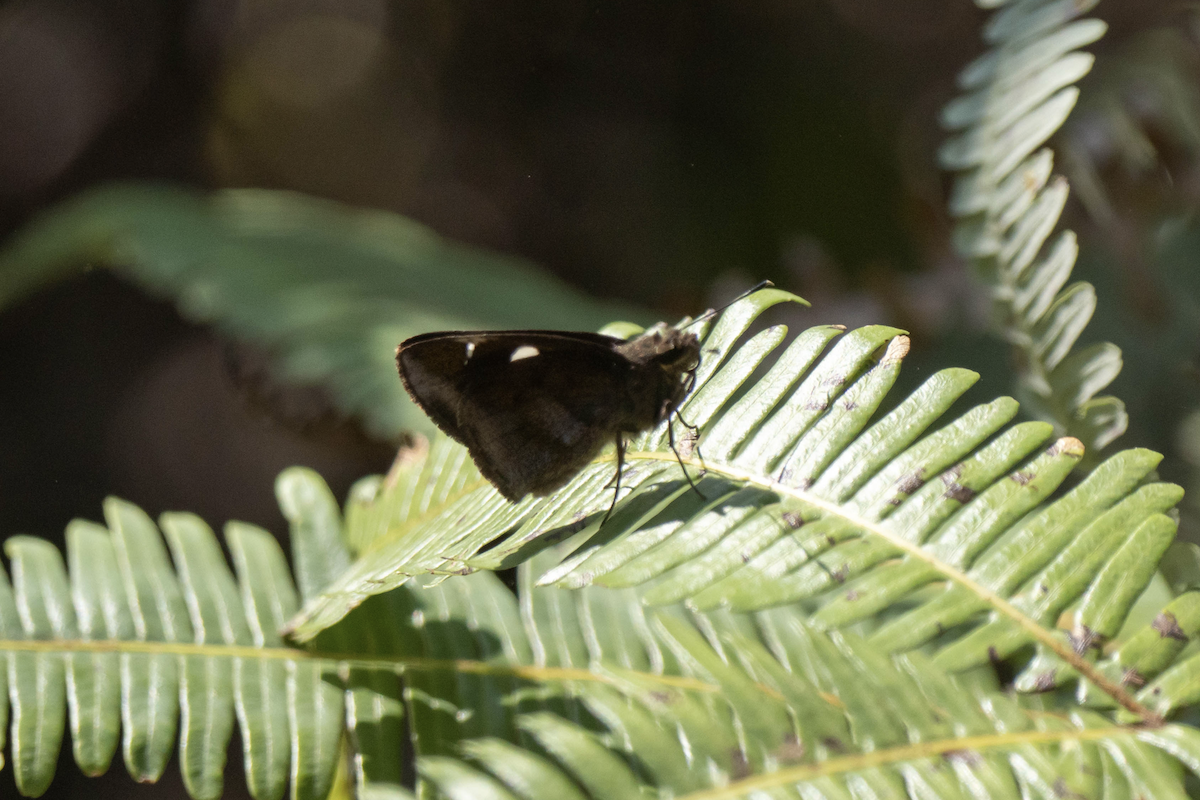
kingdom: Animalia
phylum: Arthropoda
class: Insecta
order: Lepidoptera
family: Hesperiidae
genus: Notocrypta
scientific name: Notocrypta curvifascia
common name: Restricted demon
